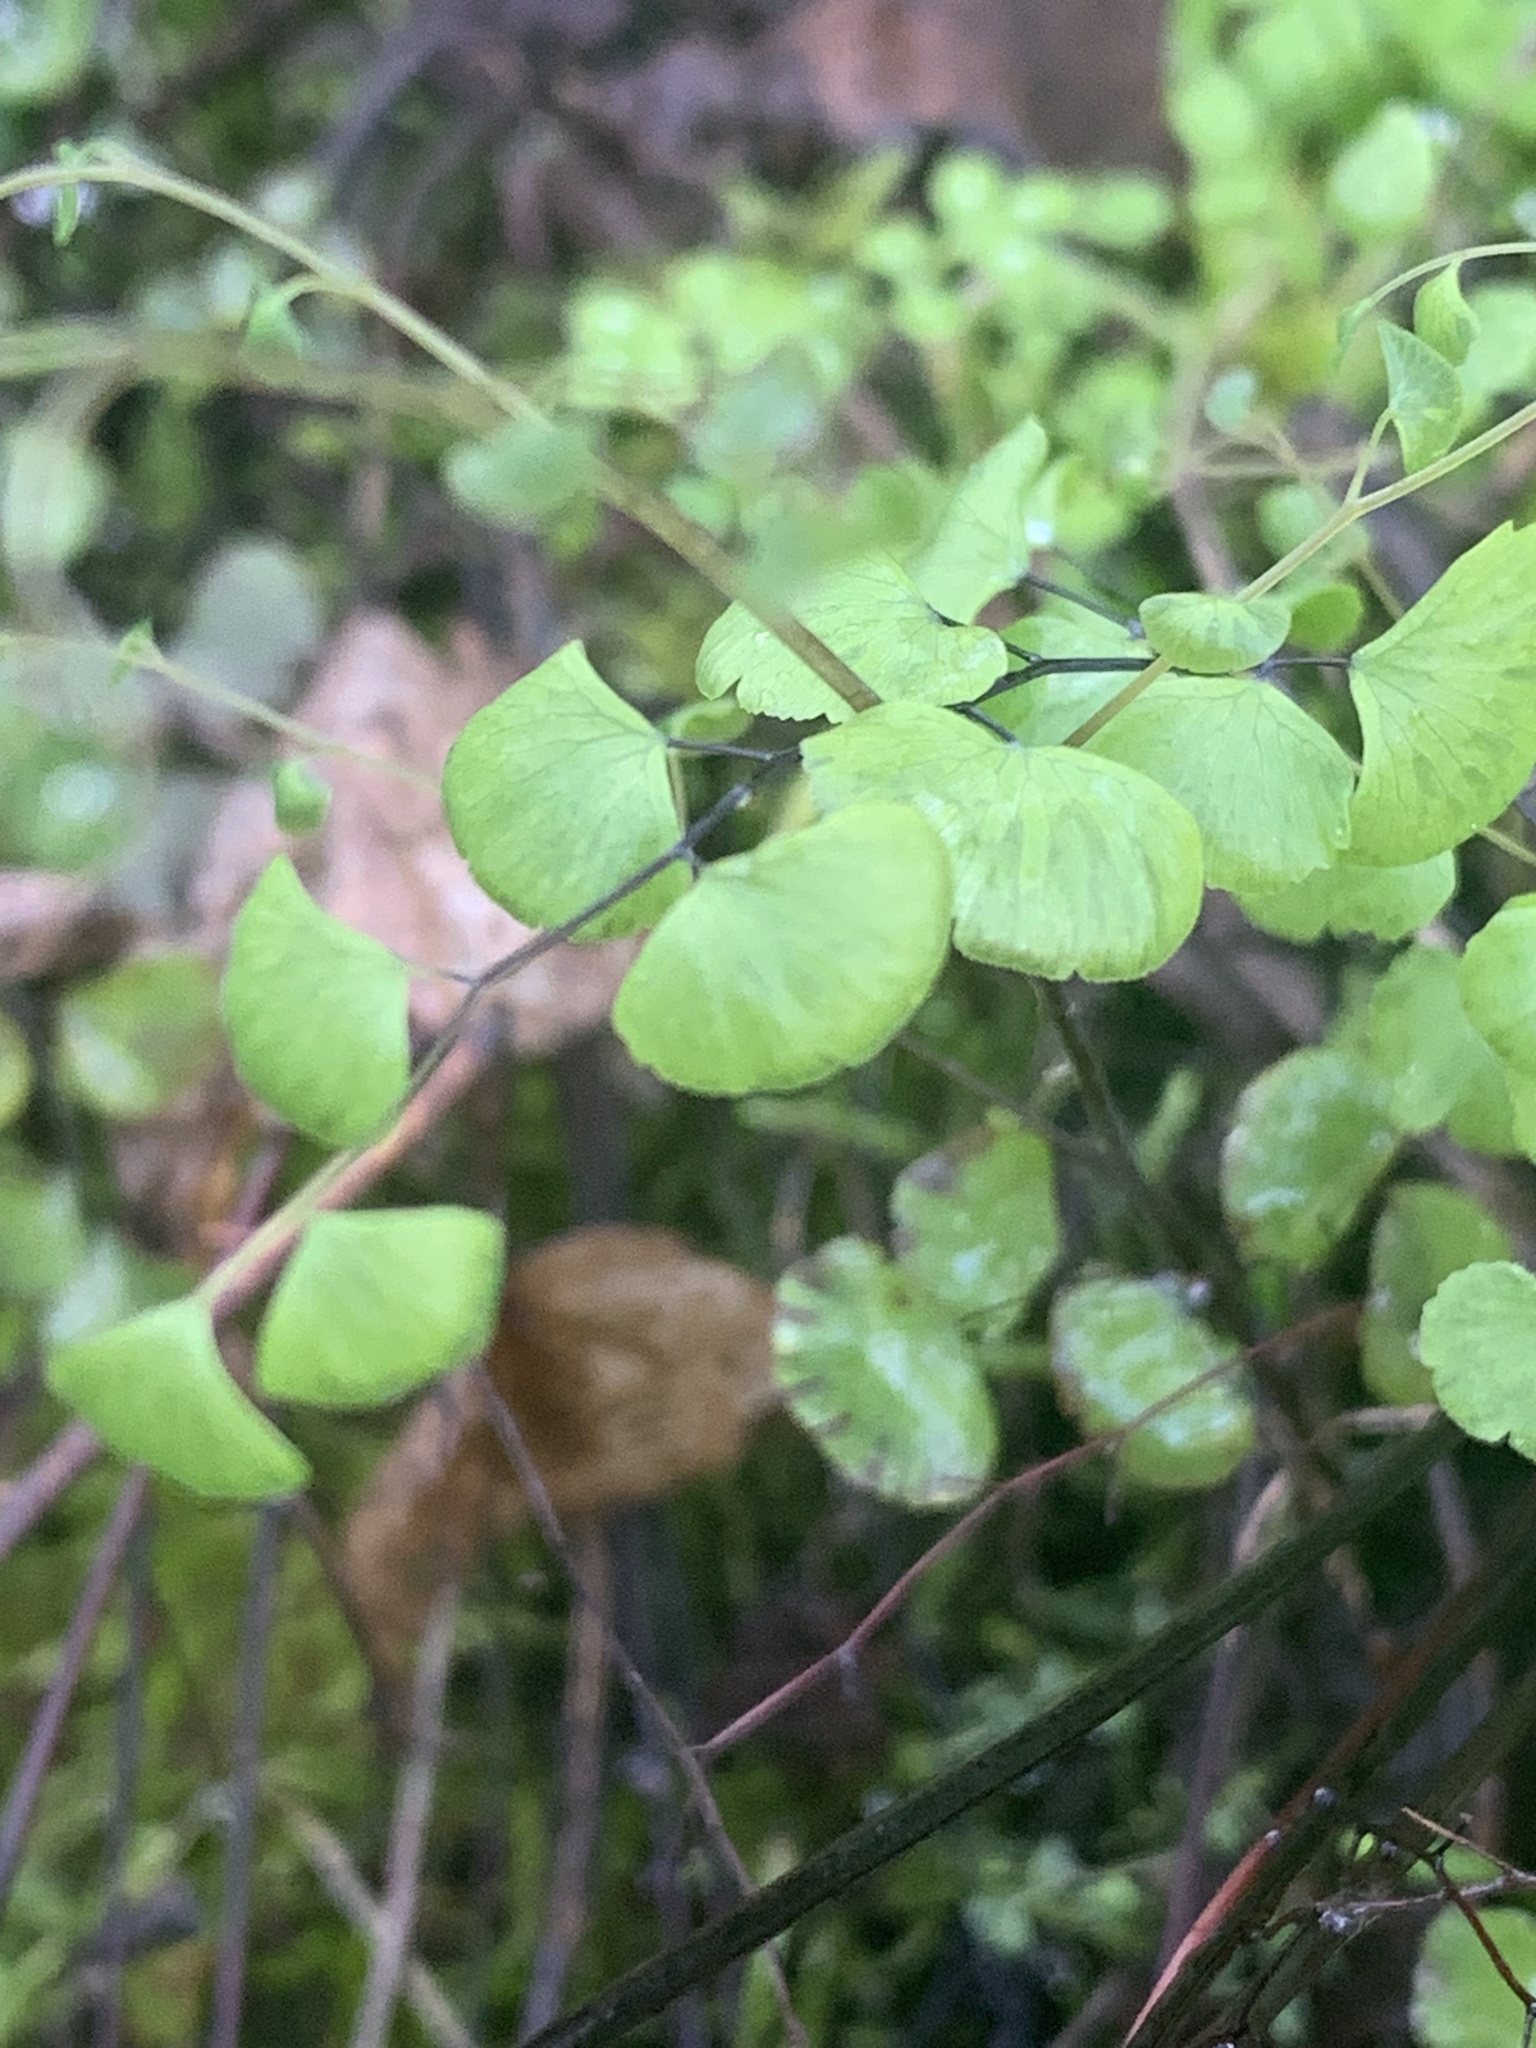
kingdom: Plantae
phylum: Tracheophyta
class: Polypodiopsida
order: Polypodiales
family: Pteridaceae
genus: Adiantum
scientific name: Adiantum jordanii
